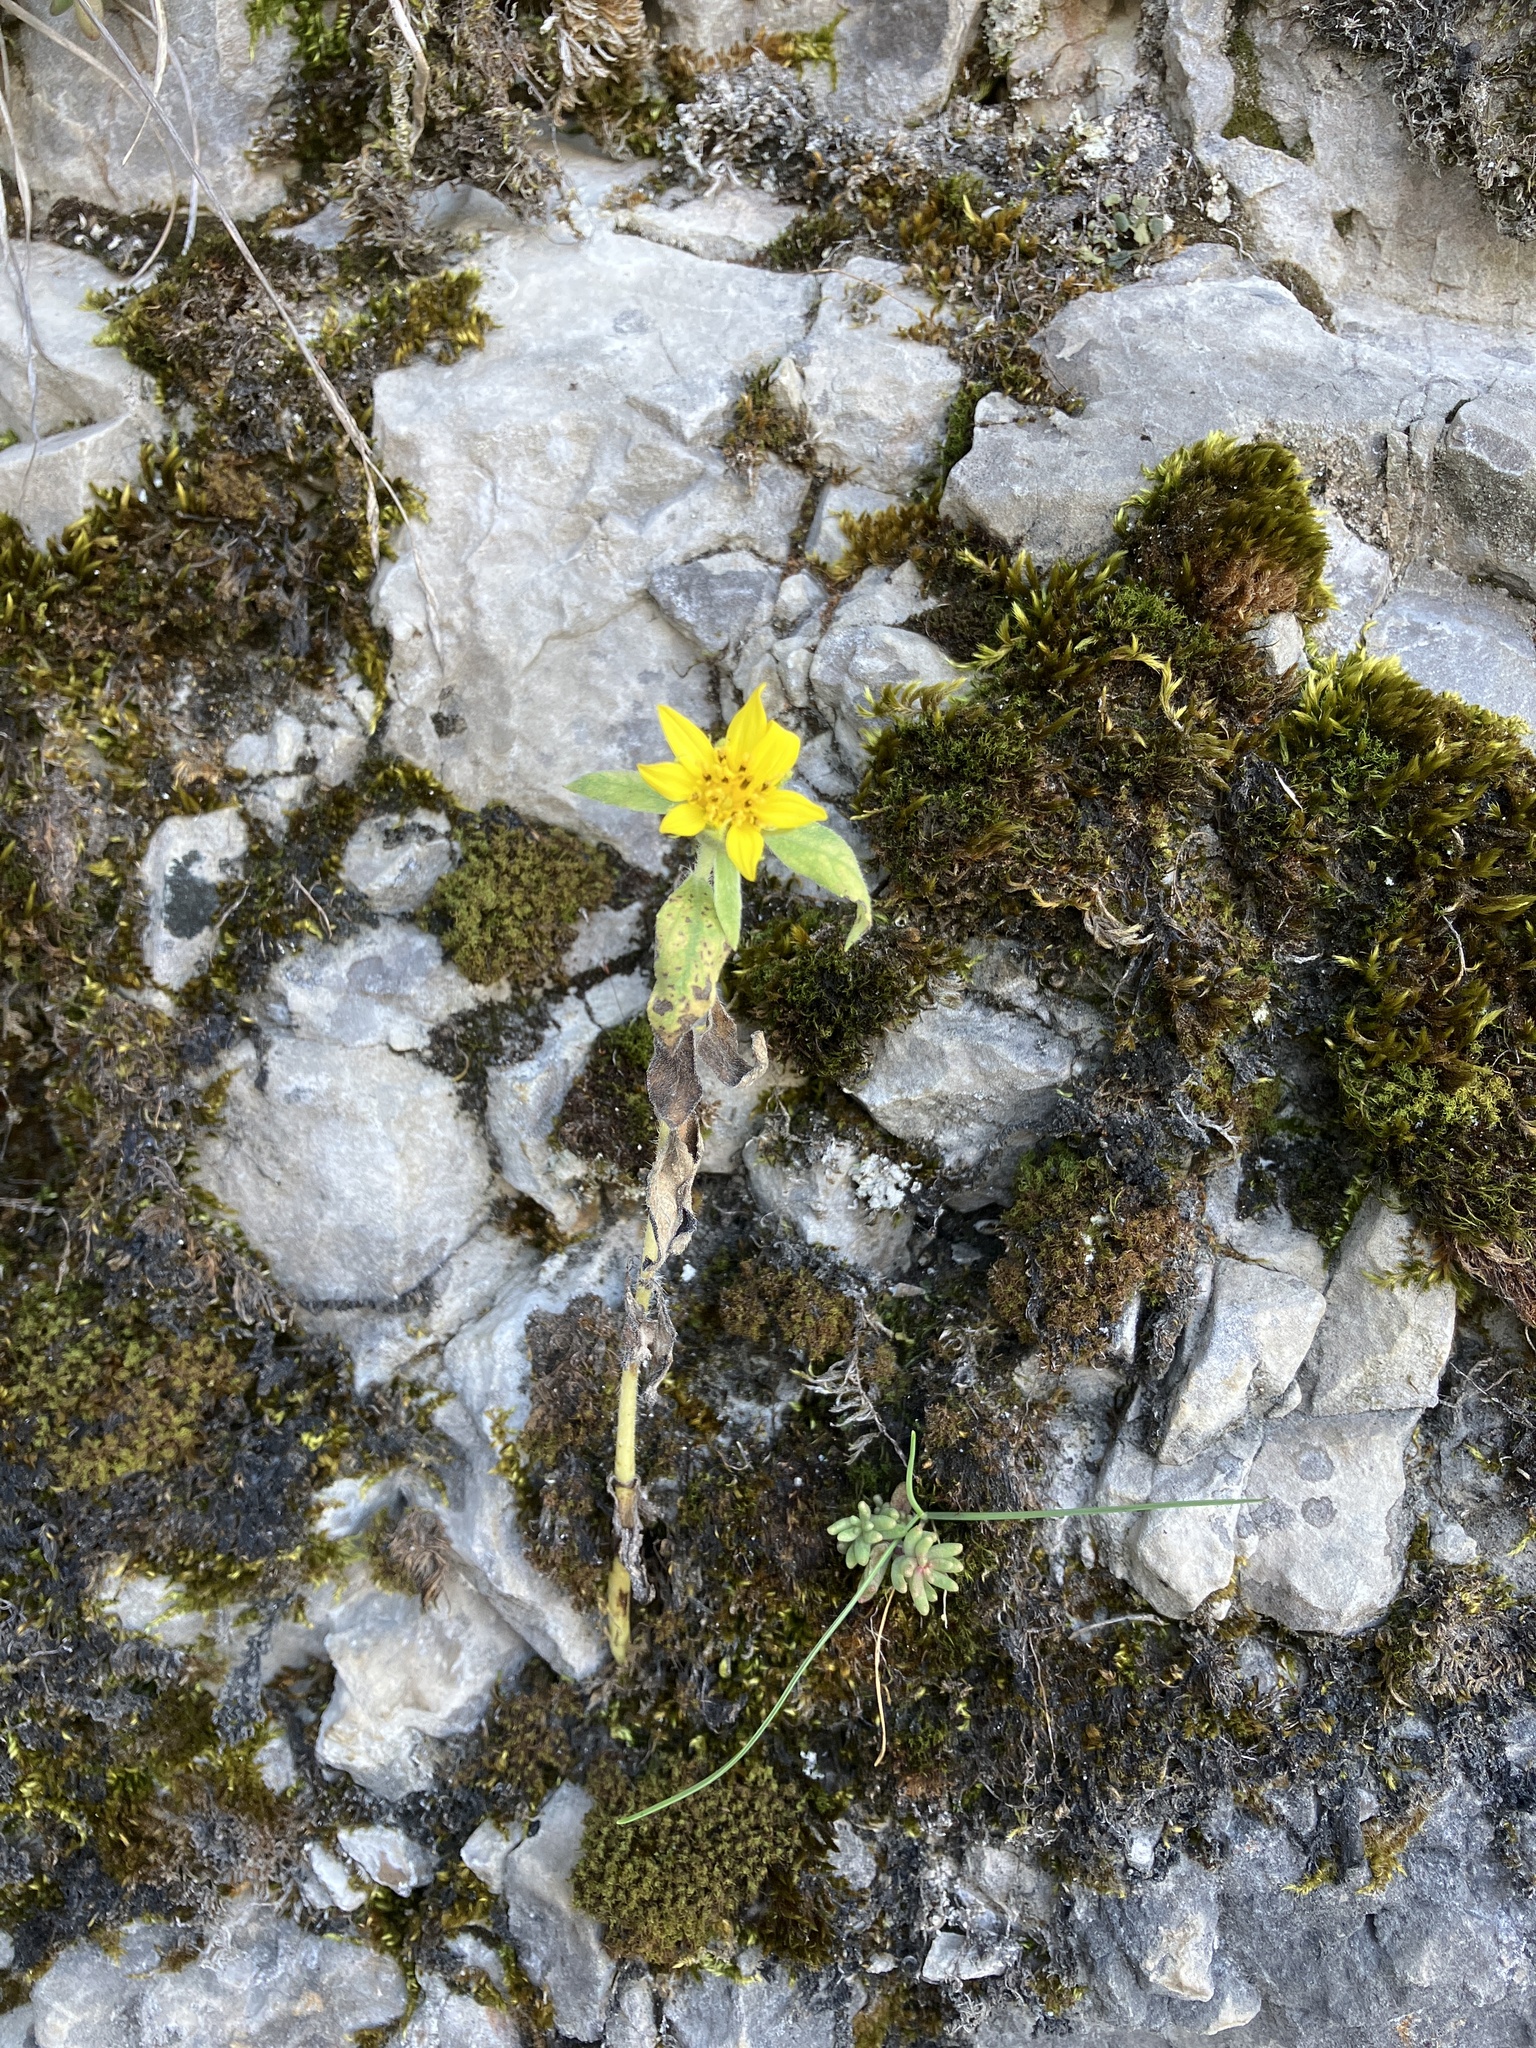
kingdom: Plantae
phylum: Tracheophyta
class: Magnoliopsida
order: Asterales
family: Asteraceae
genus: Helianthus
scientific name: Helianthus annuus
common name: Sunflower
